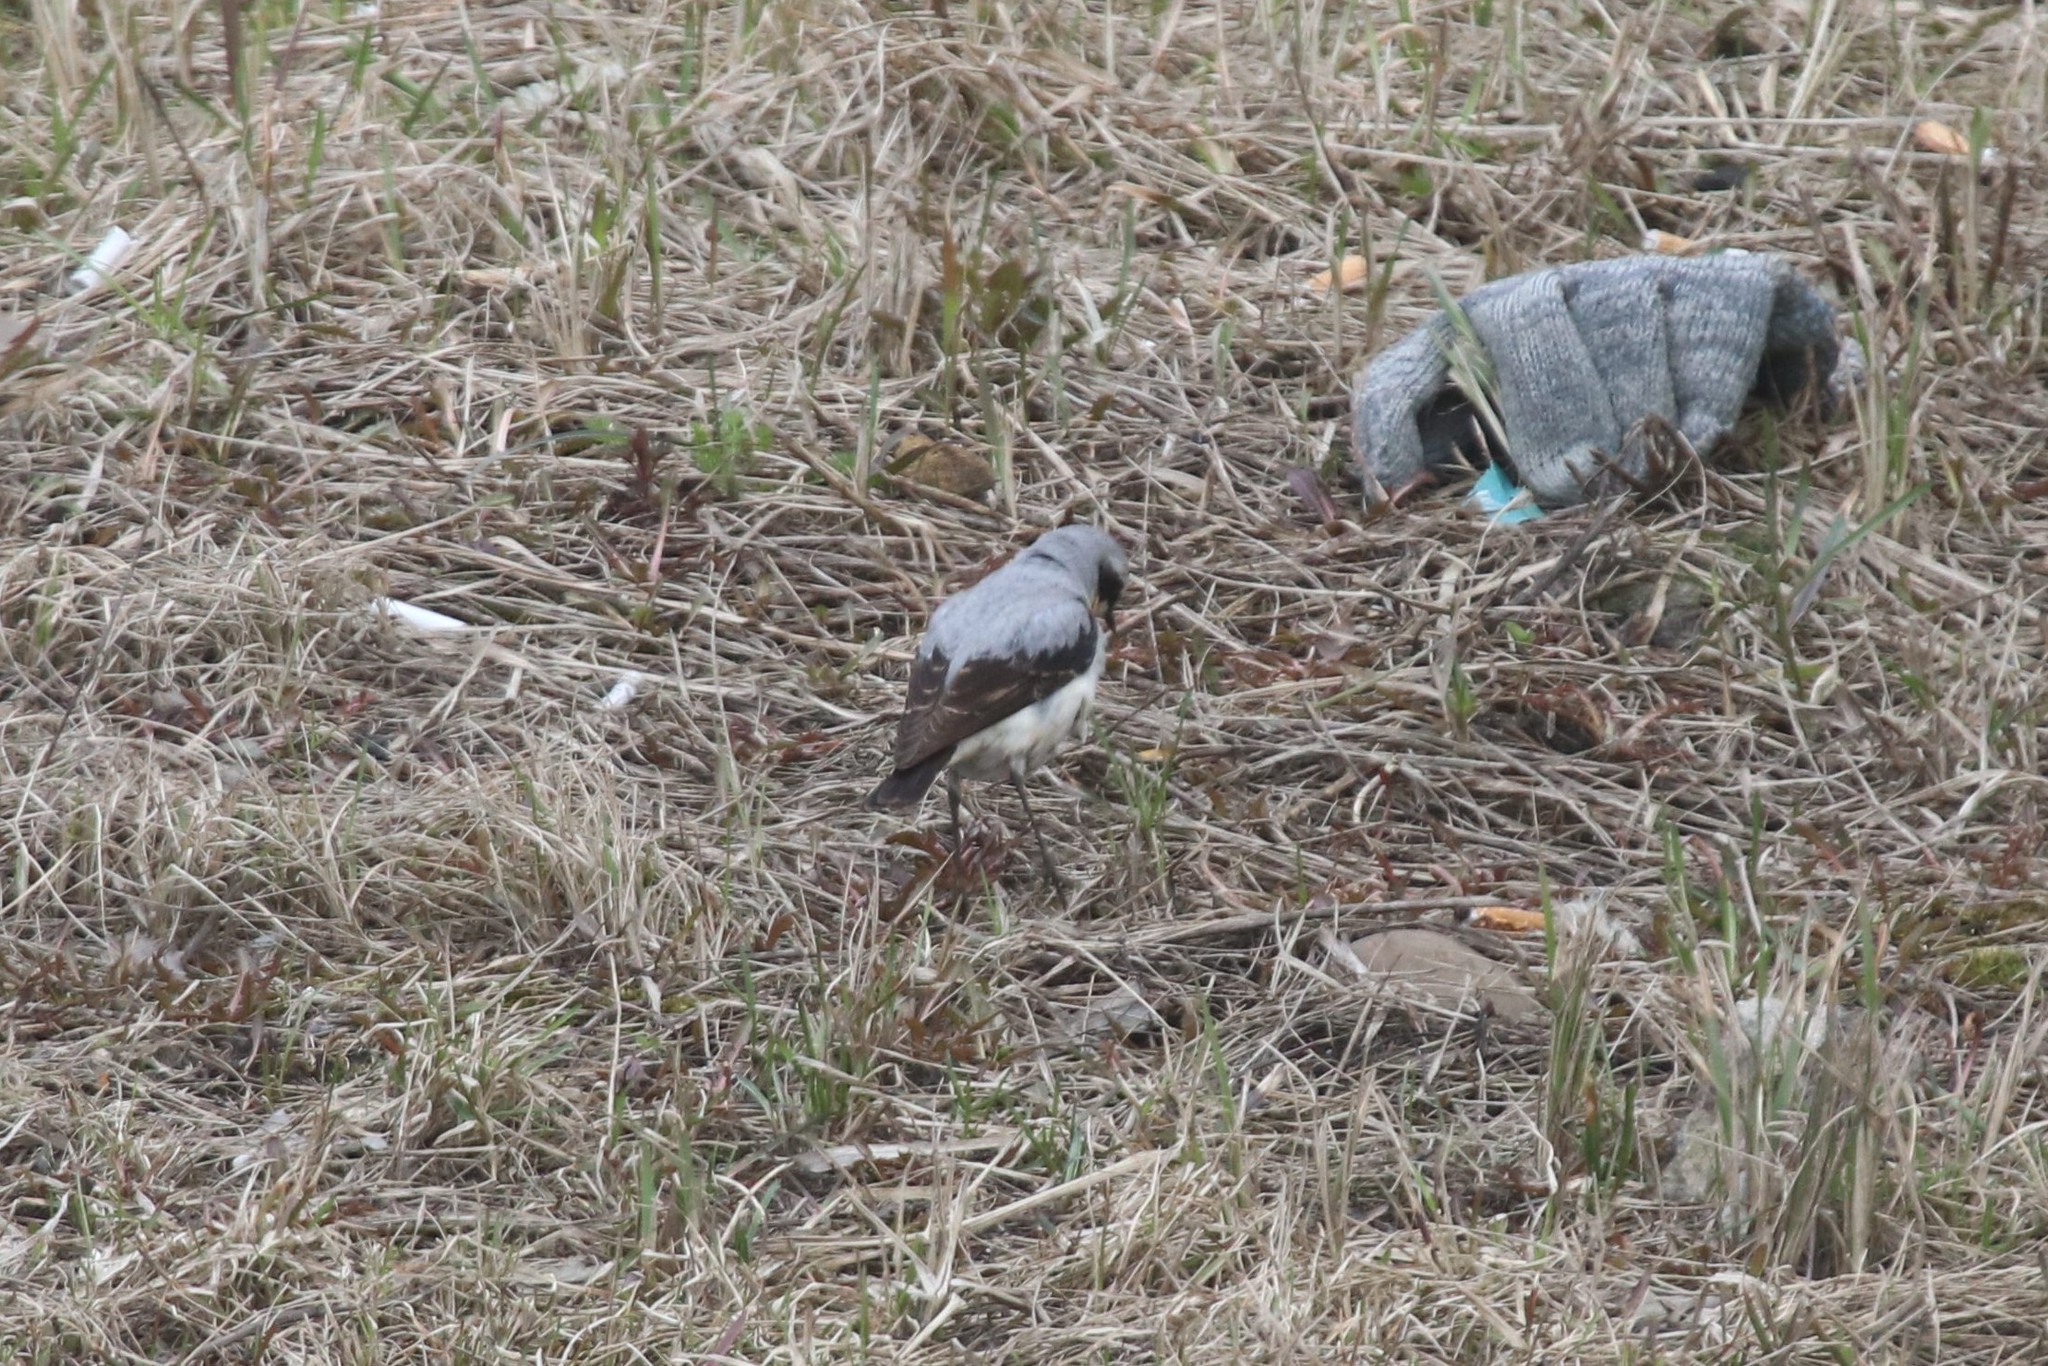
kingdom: Animalia
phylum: Chordata
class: Aves
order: Passeriformes
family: Muscicapidae
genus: Oenanthe
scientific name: Oenanthe oenanthe
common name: Northern wheatear
